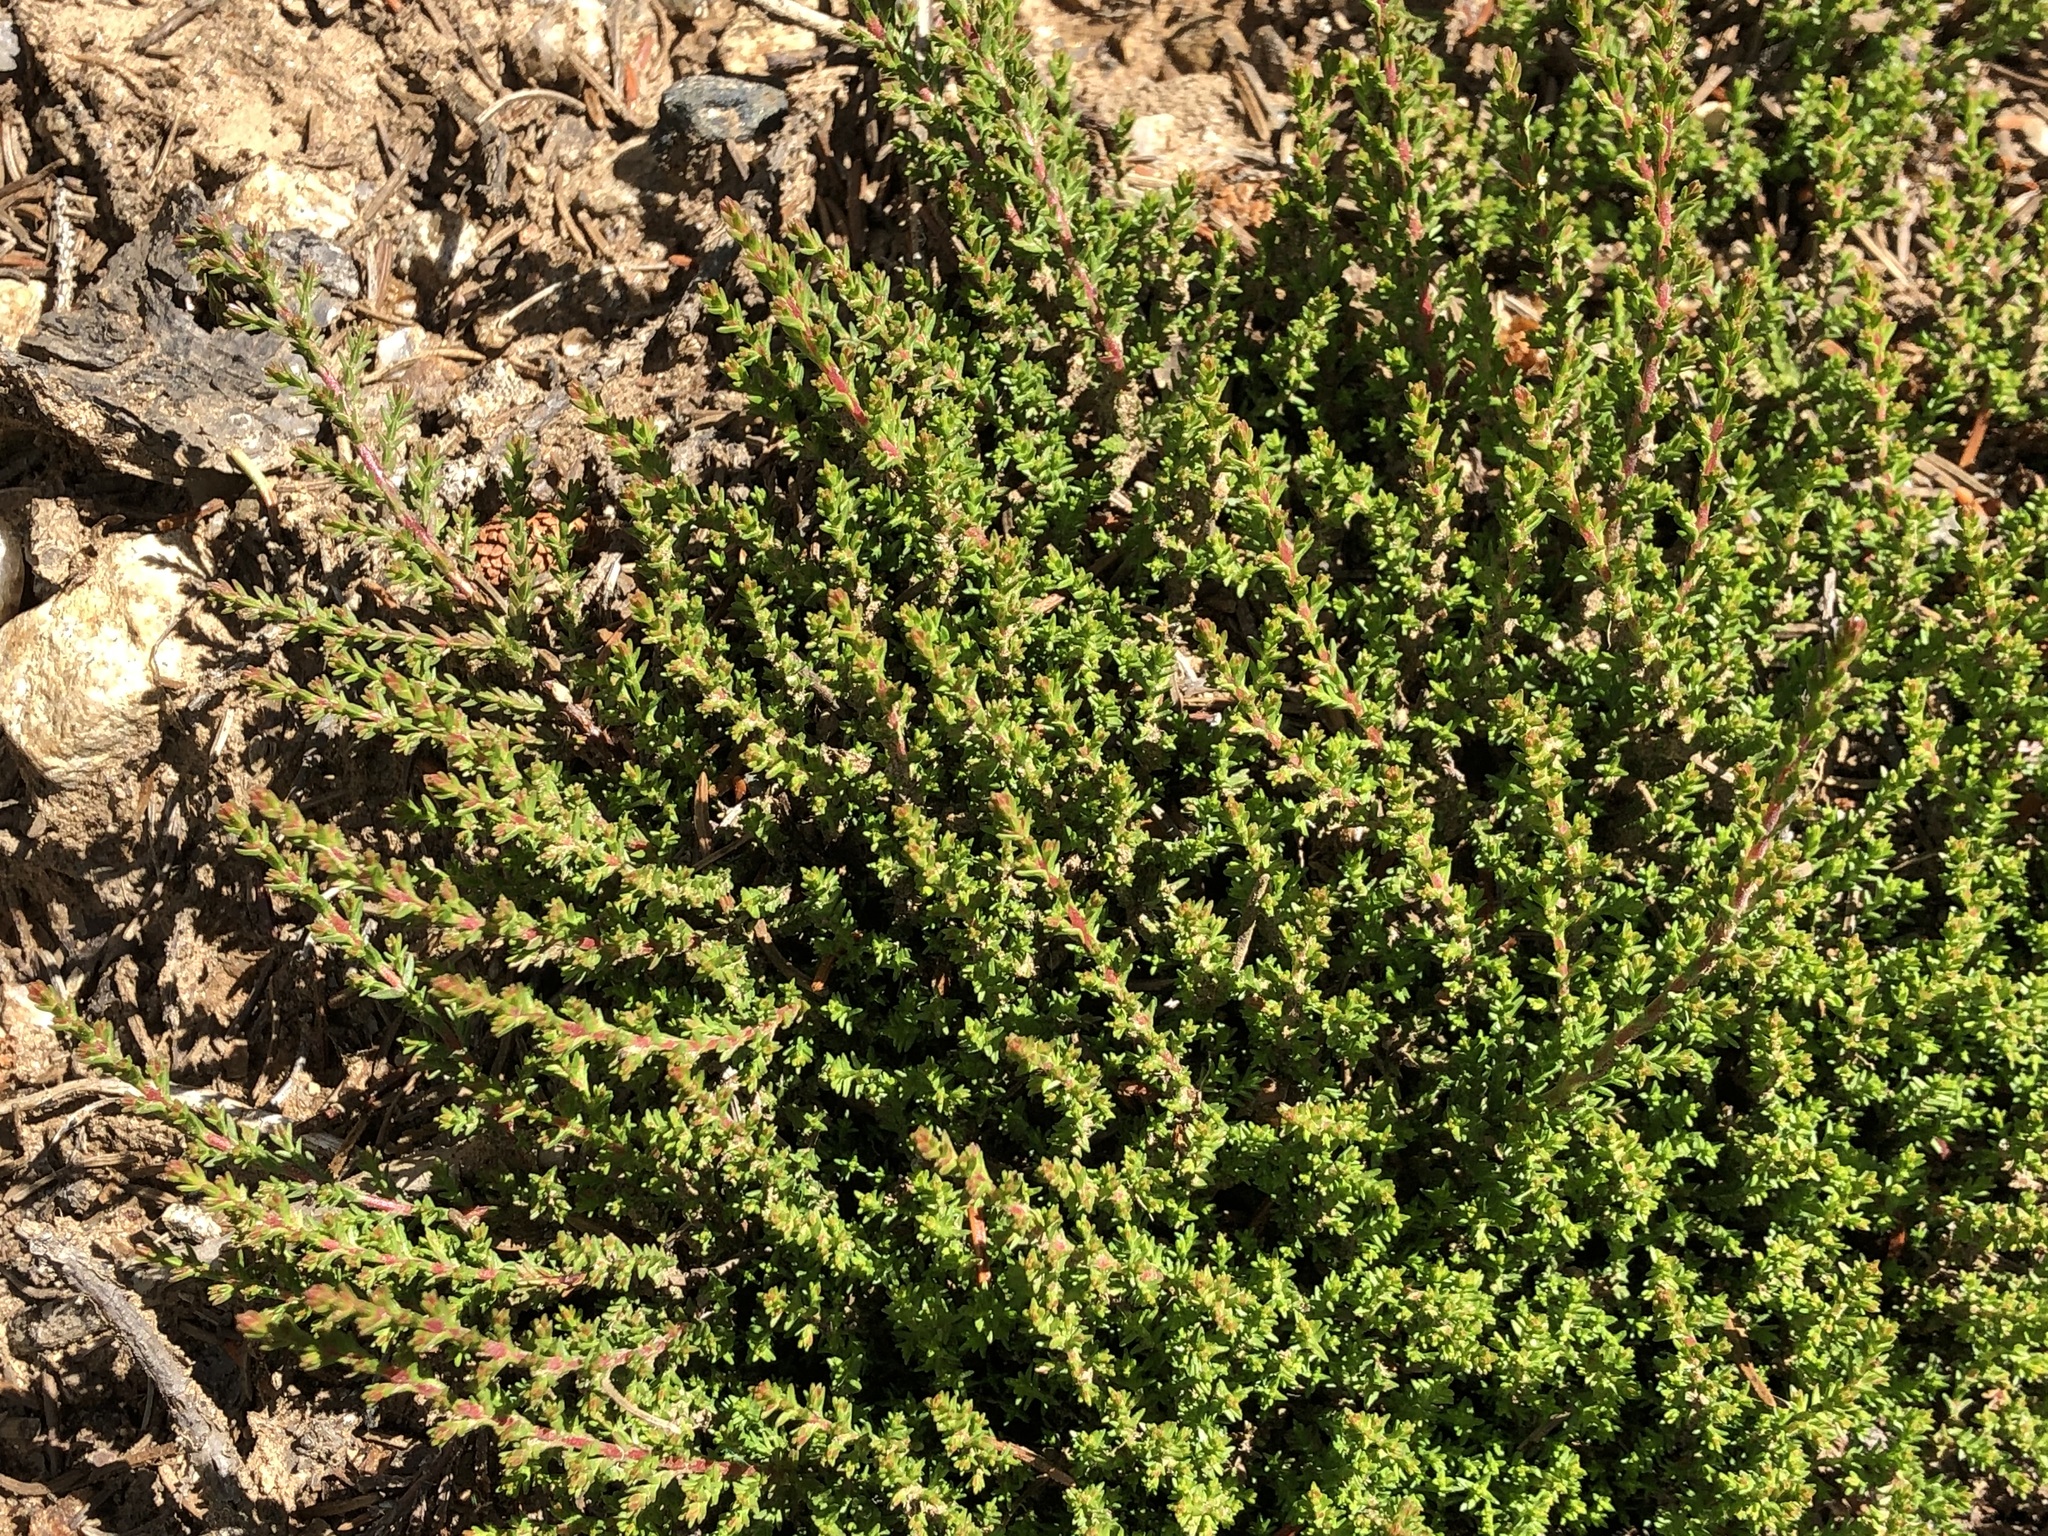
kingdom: Plantae
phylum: Tracheophyta
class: Magnoliopsida
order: Ericales
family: Ericaceae
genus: Calluna
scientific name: Calluna vulgaris
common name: Heather
